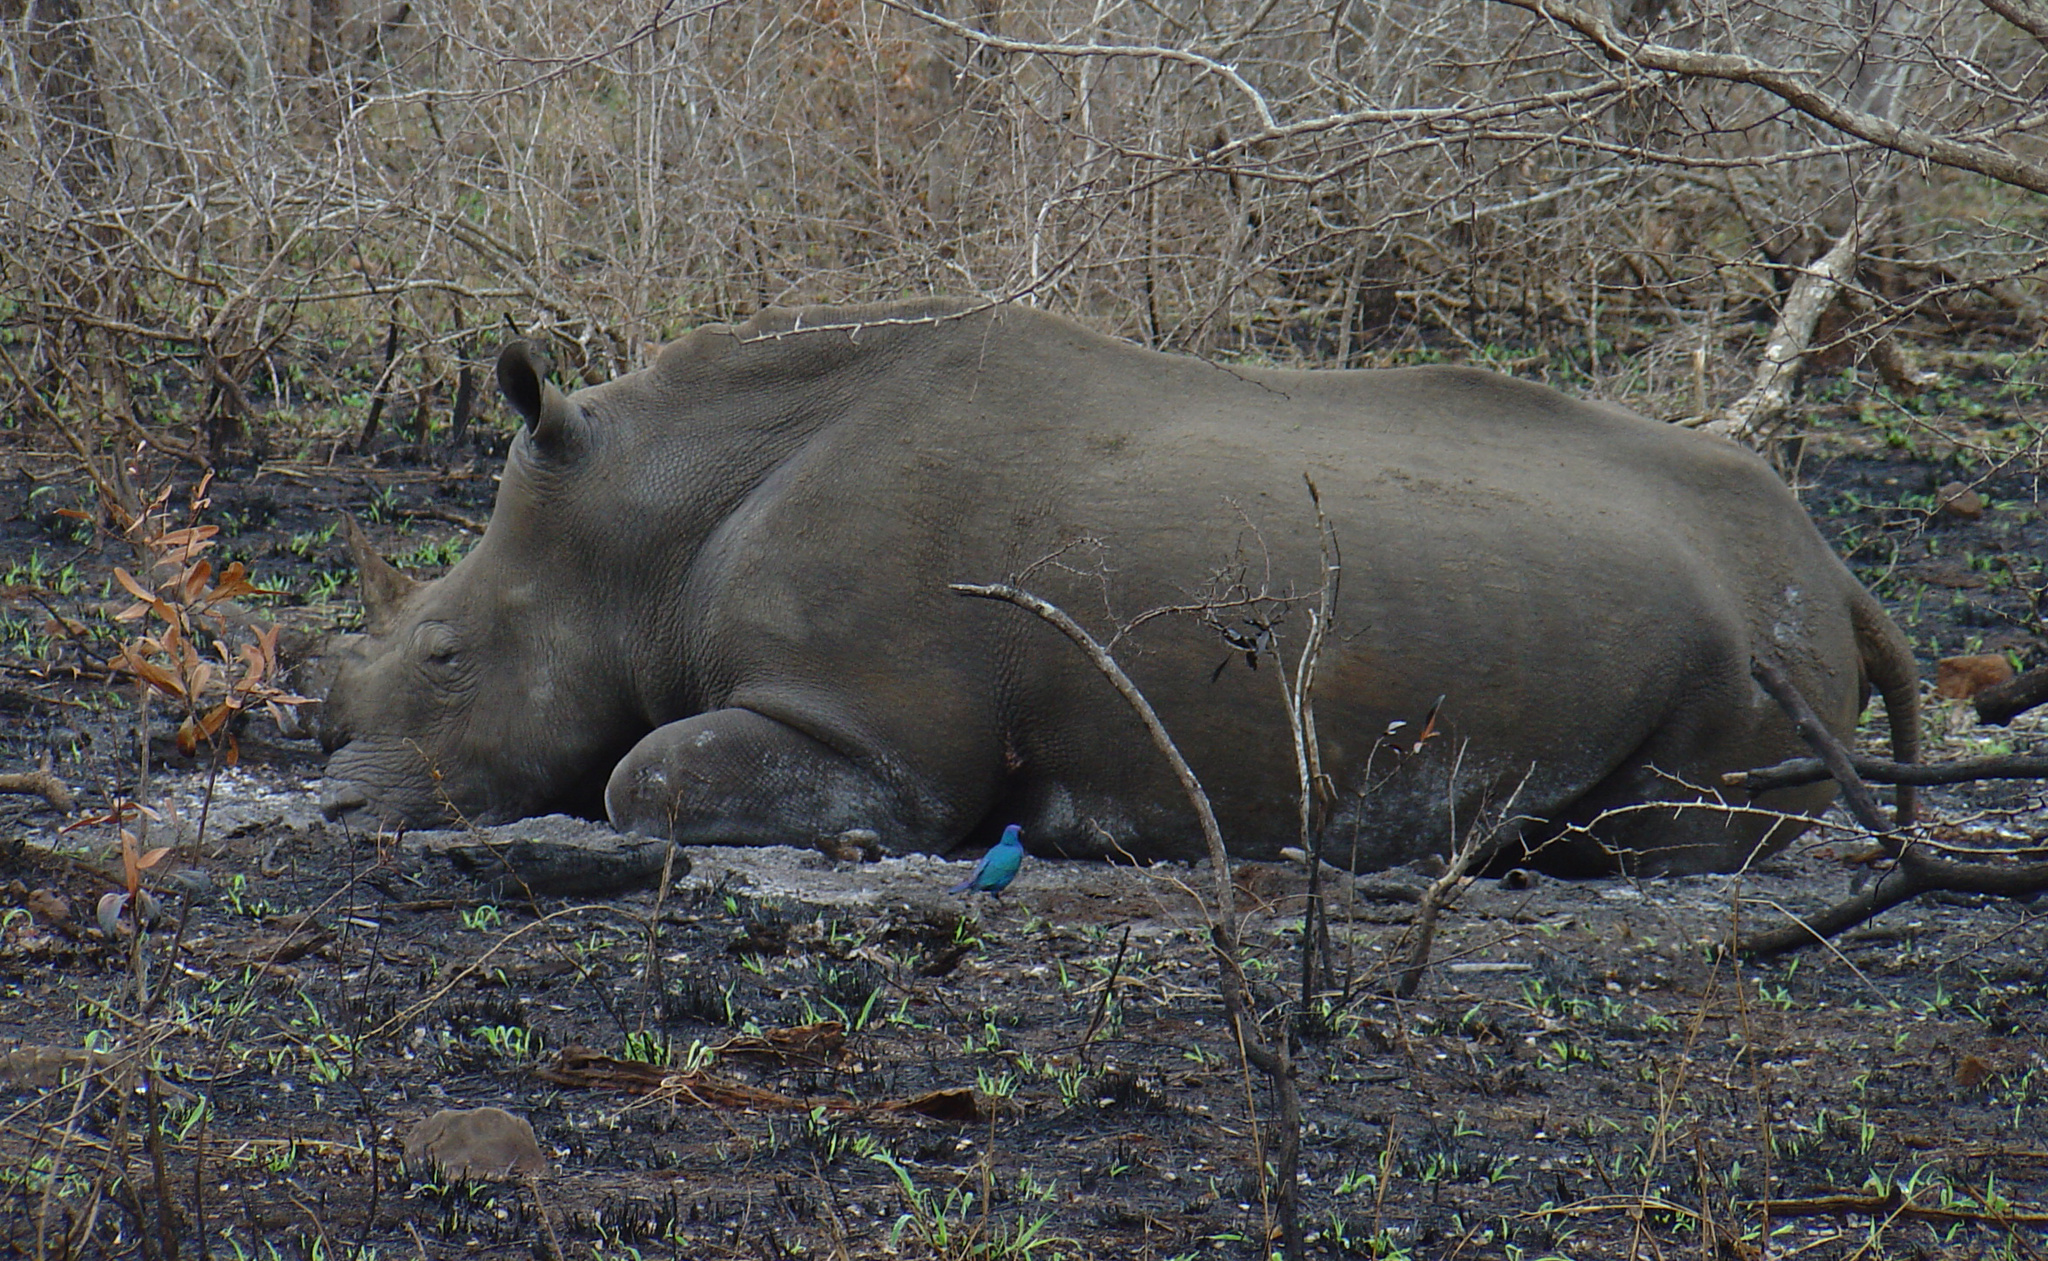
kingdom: Animalia
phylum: Chordata
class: Mammalia
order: Perissodactyla
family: Rhinocerotidae
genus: Ceratotherium
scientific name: Ceratotherium simum
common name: White rhinoceros
